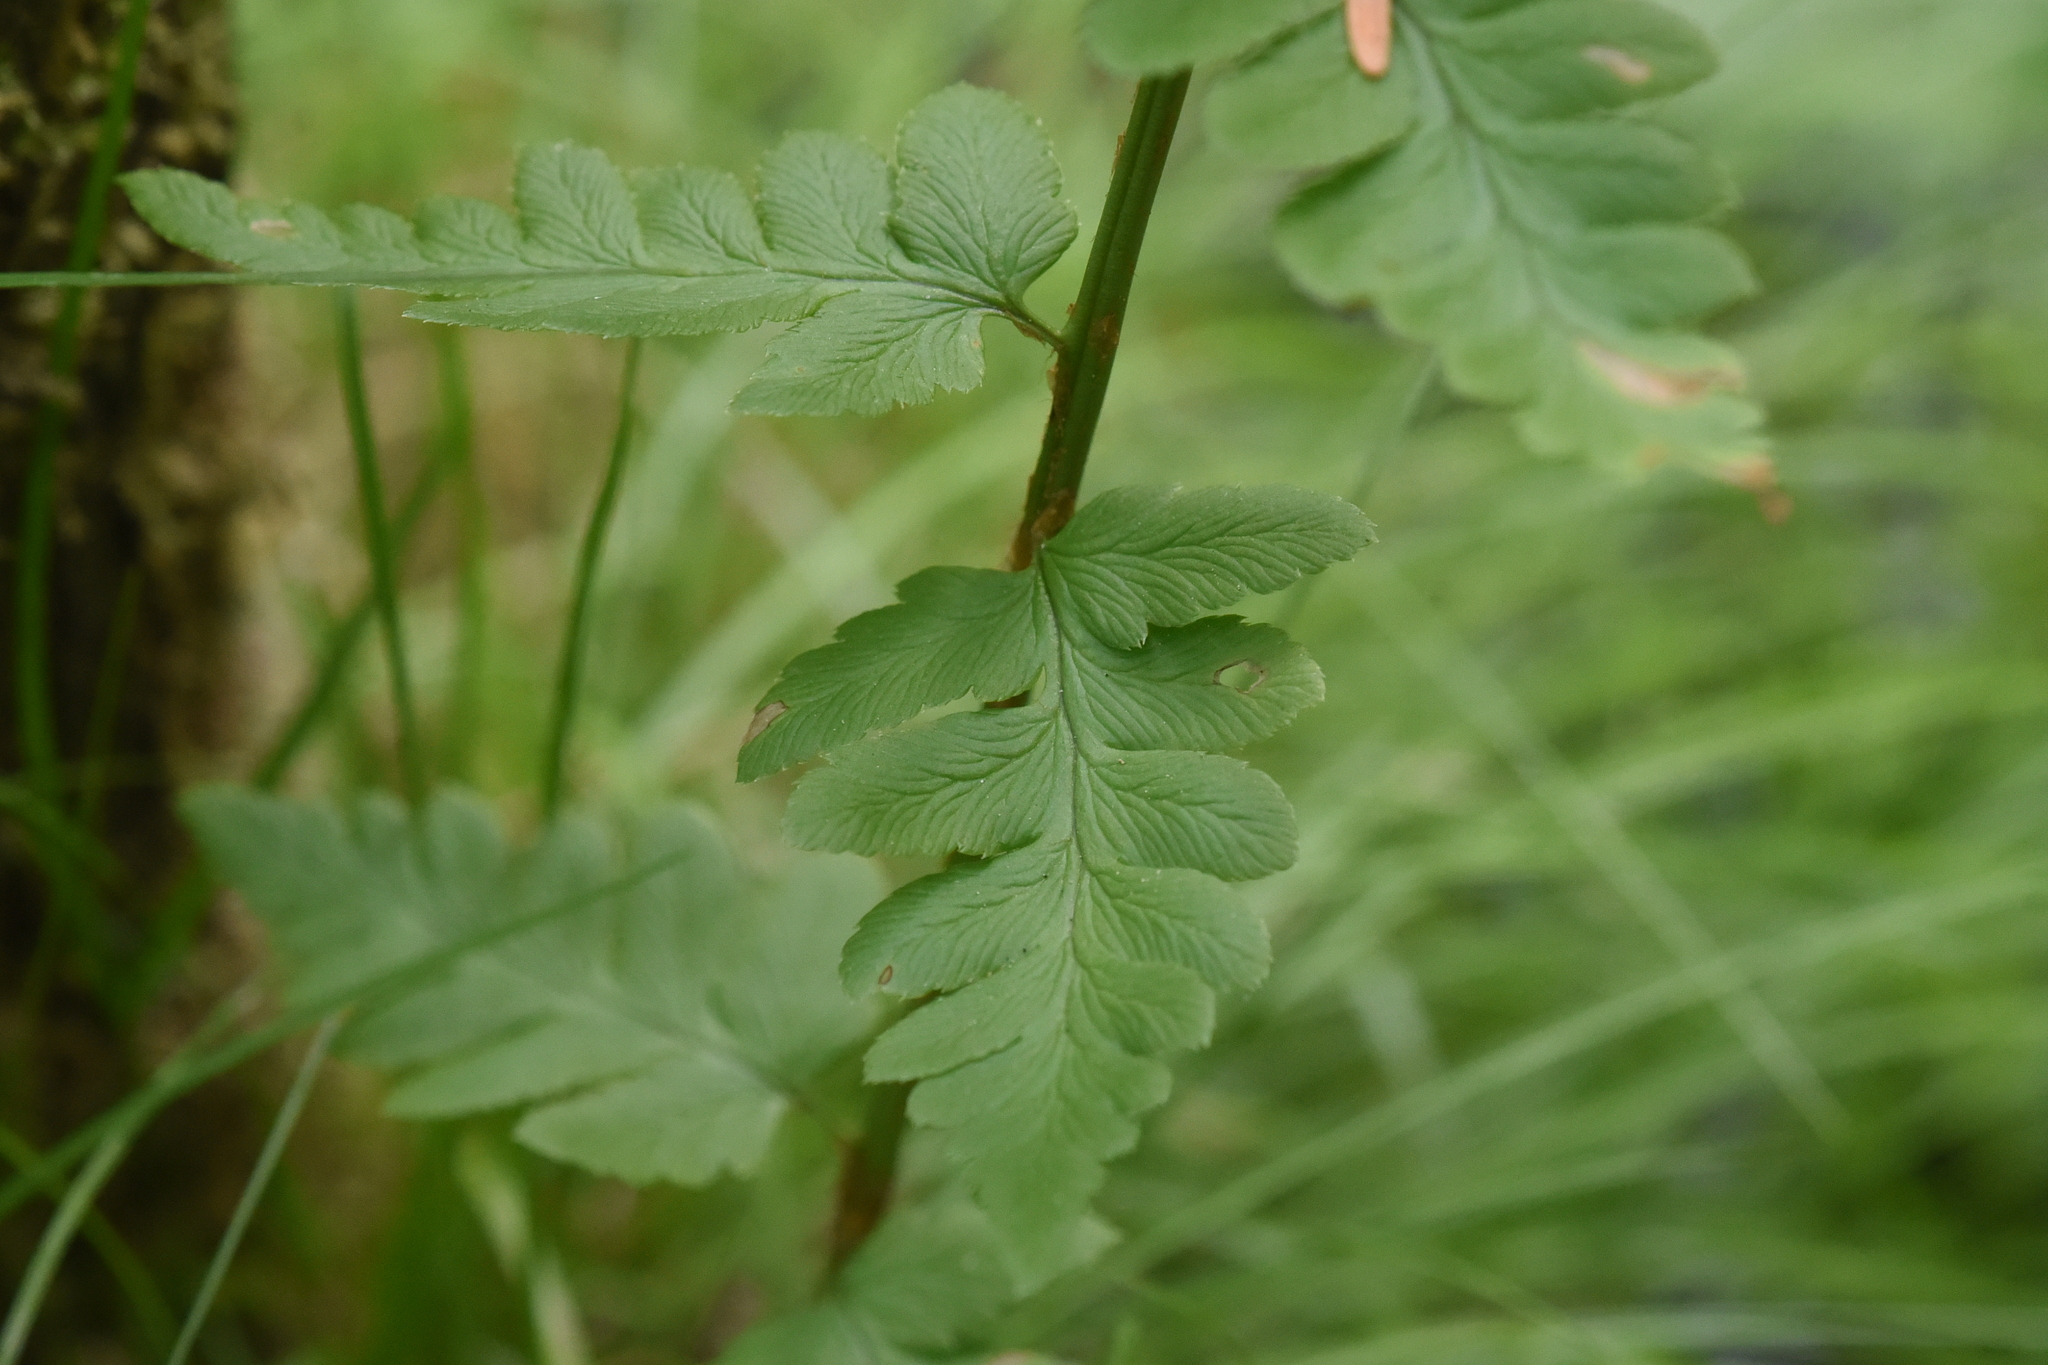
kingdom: Plantae
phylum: Tracheophyta
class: Polypodiopsida
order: Polypodiales
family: Dryopteridaceae
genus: Dryopteris
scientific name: Dryopteris cristata
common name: Crested wood fern
